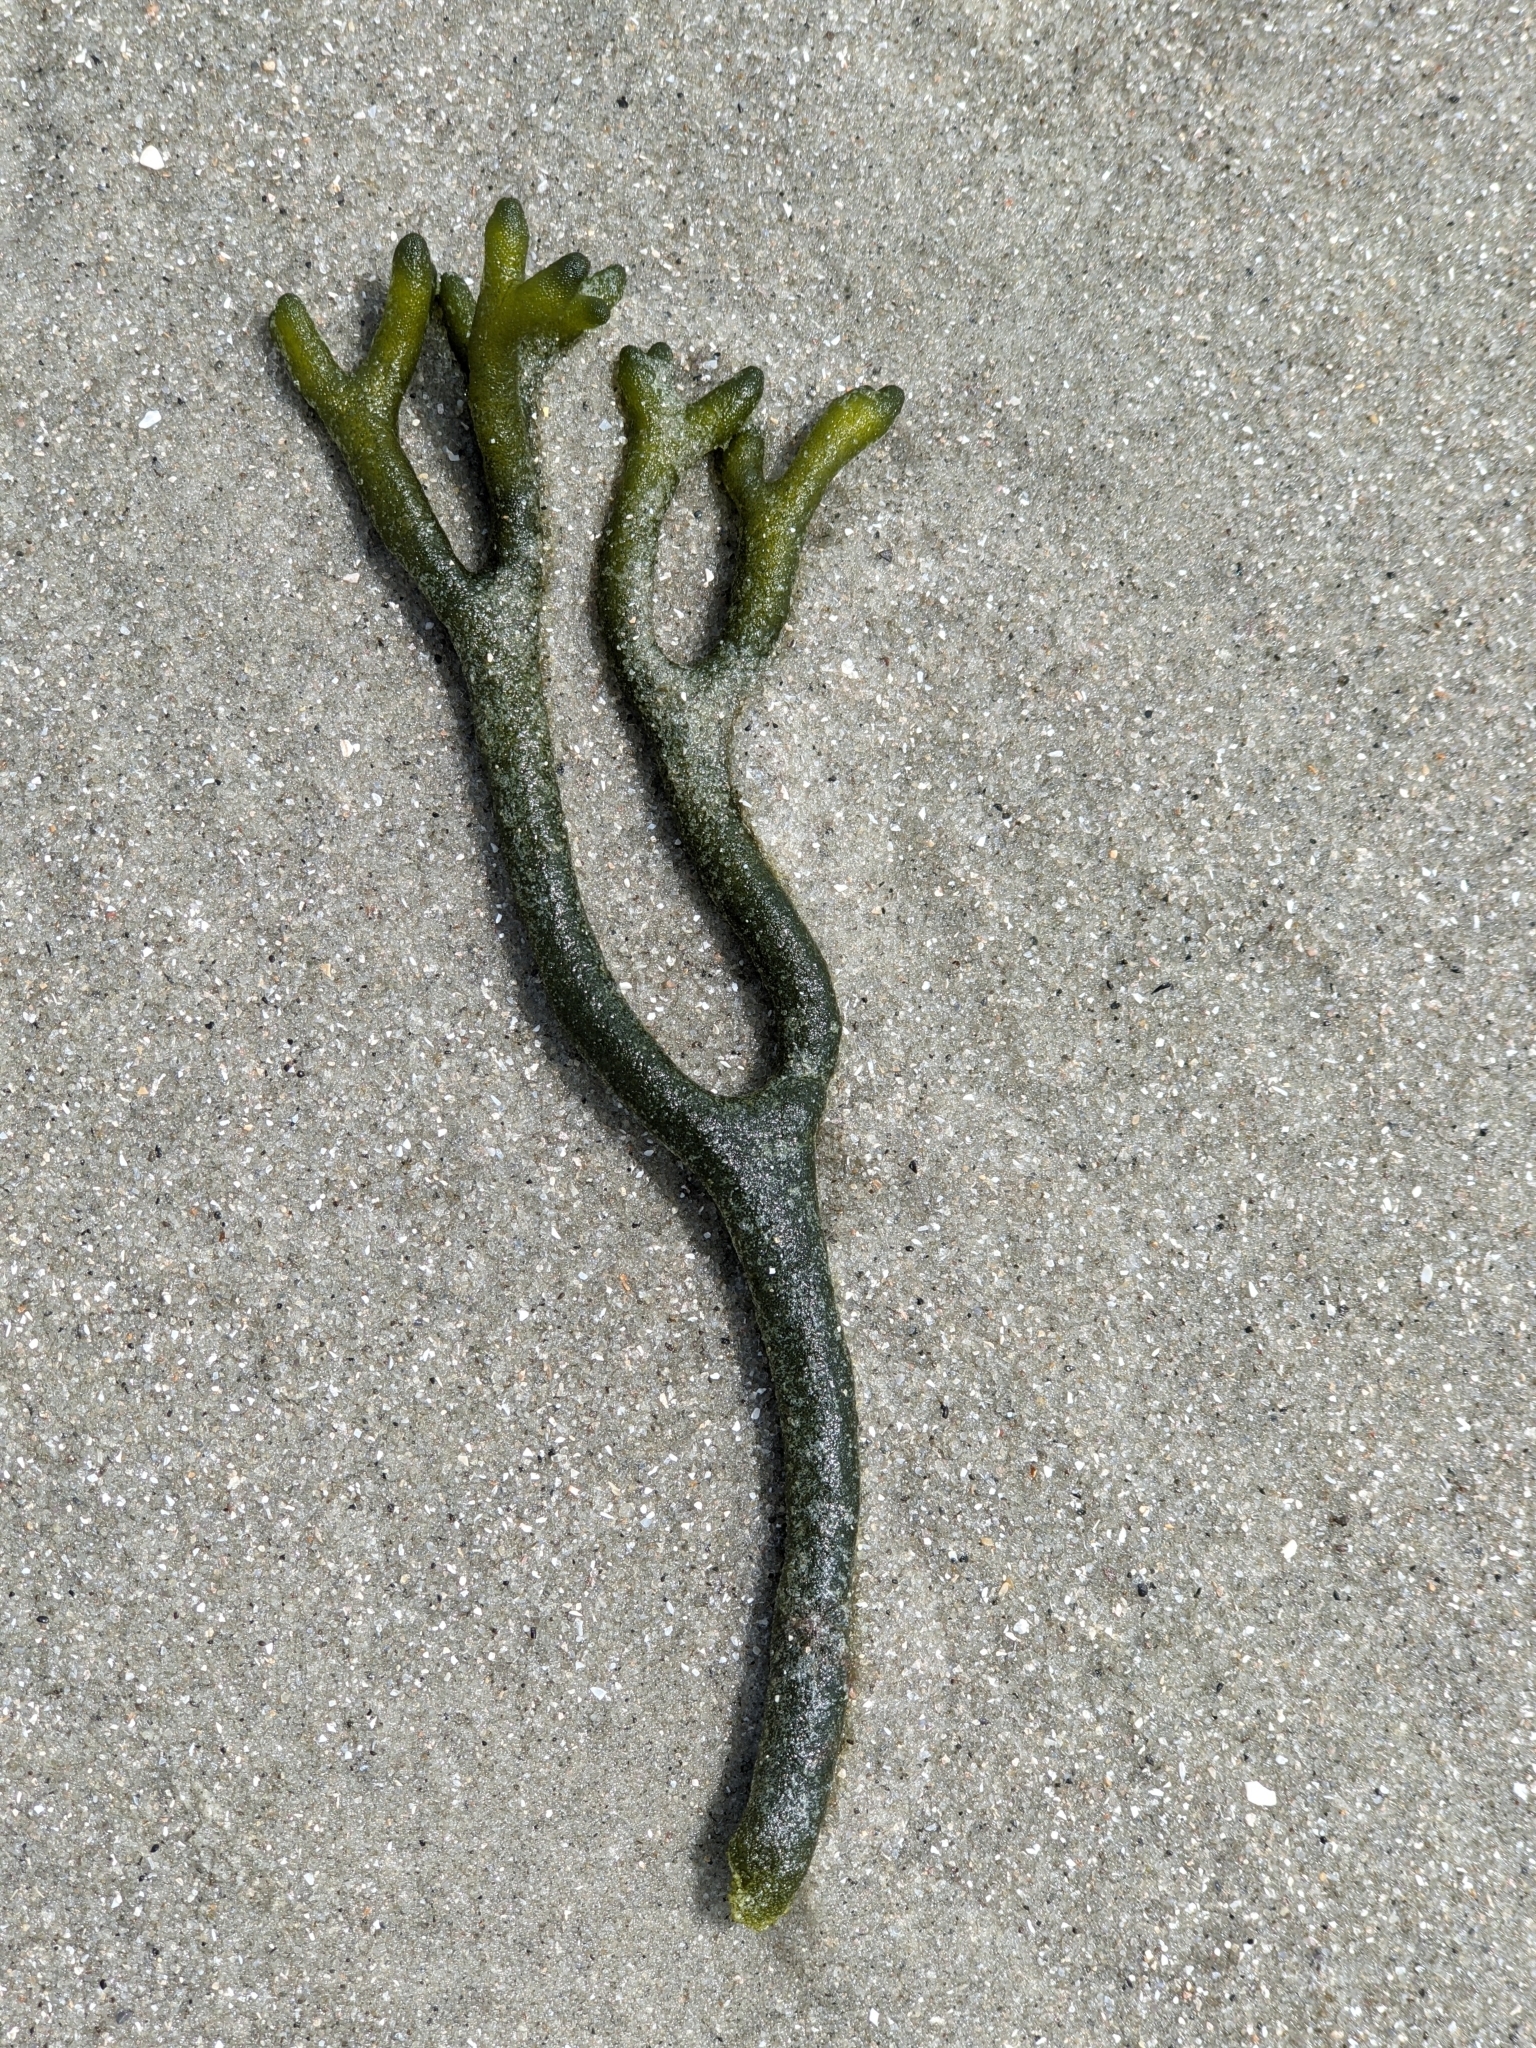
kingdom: Plantae
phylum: Chlorophyta
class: Ulvophyceae
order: Bryopsidales
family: Codiaceae
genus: Codium
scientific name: Codium fragile
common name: Dead man's fingers
